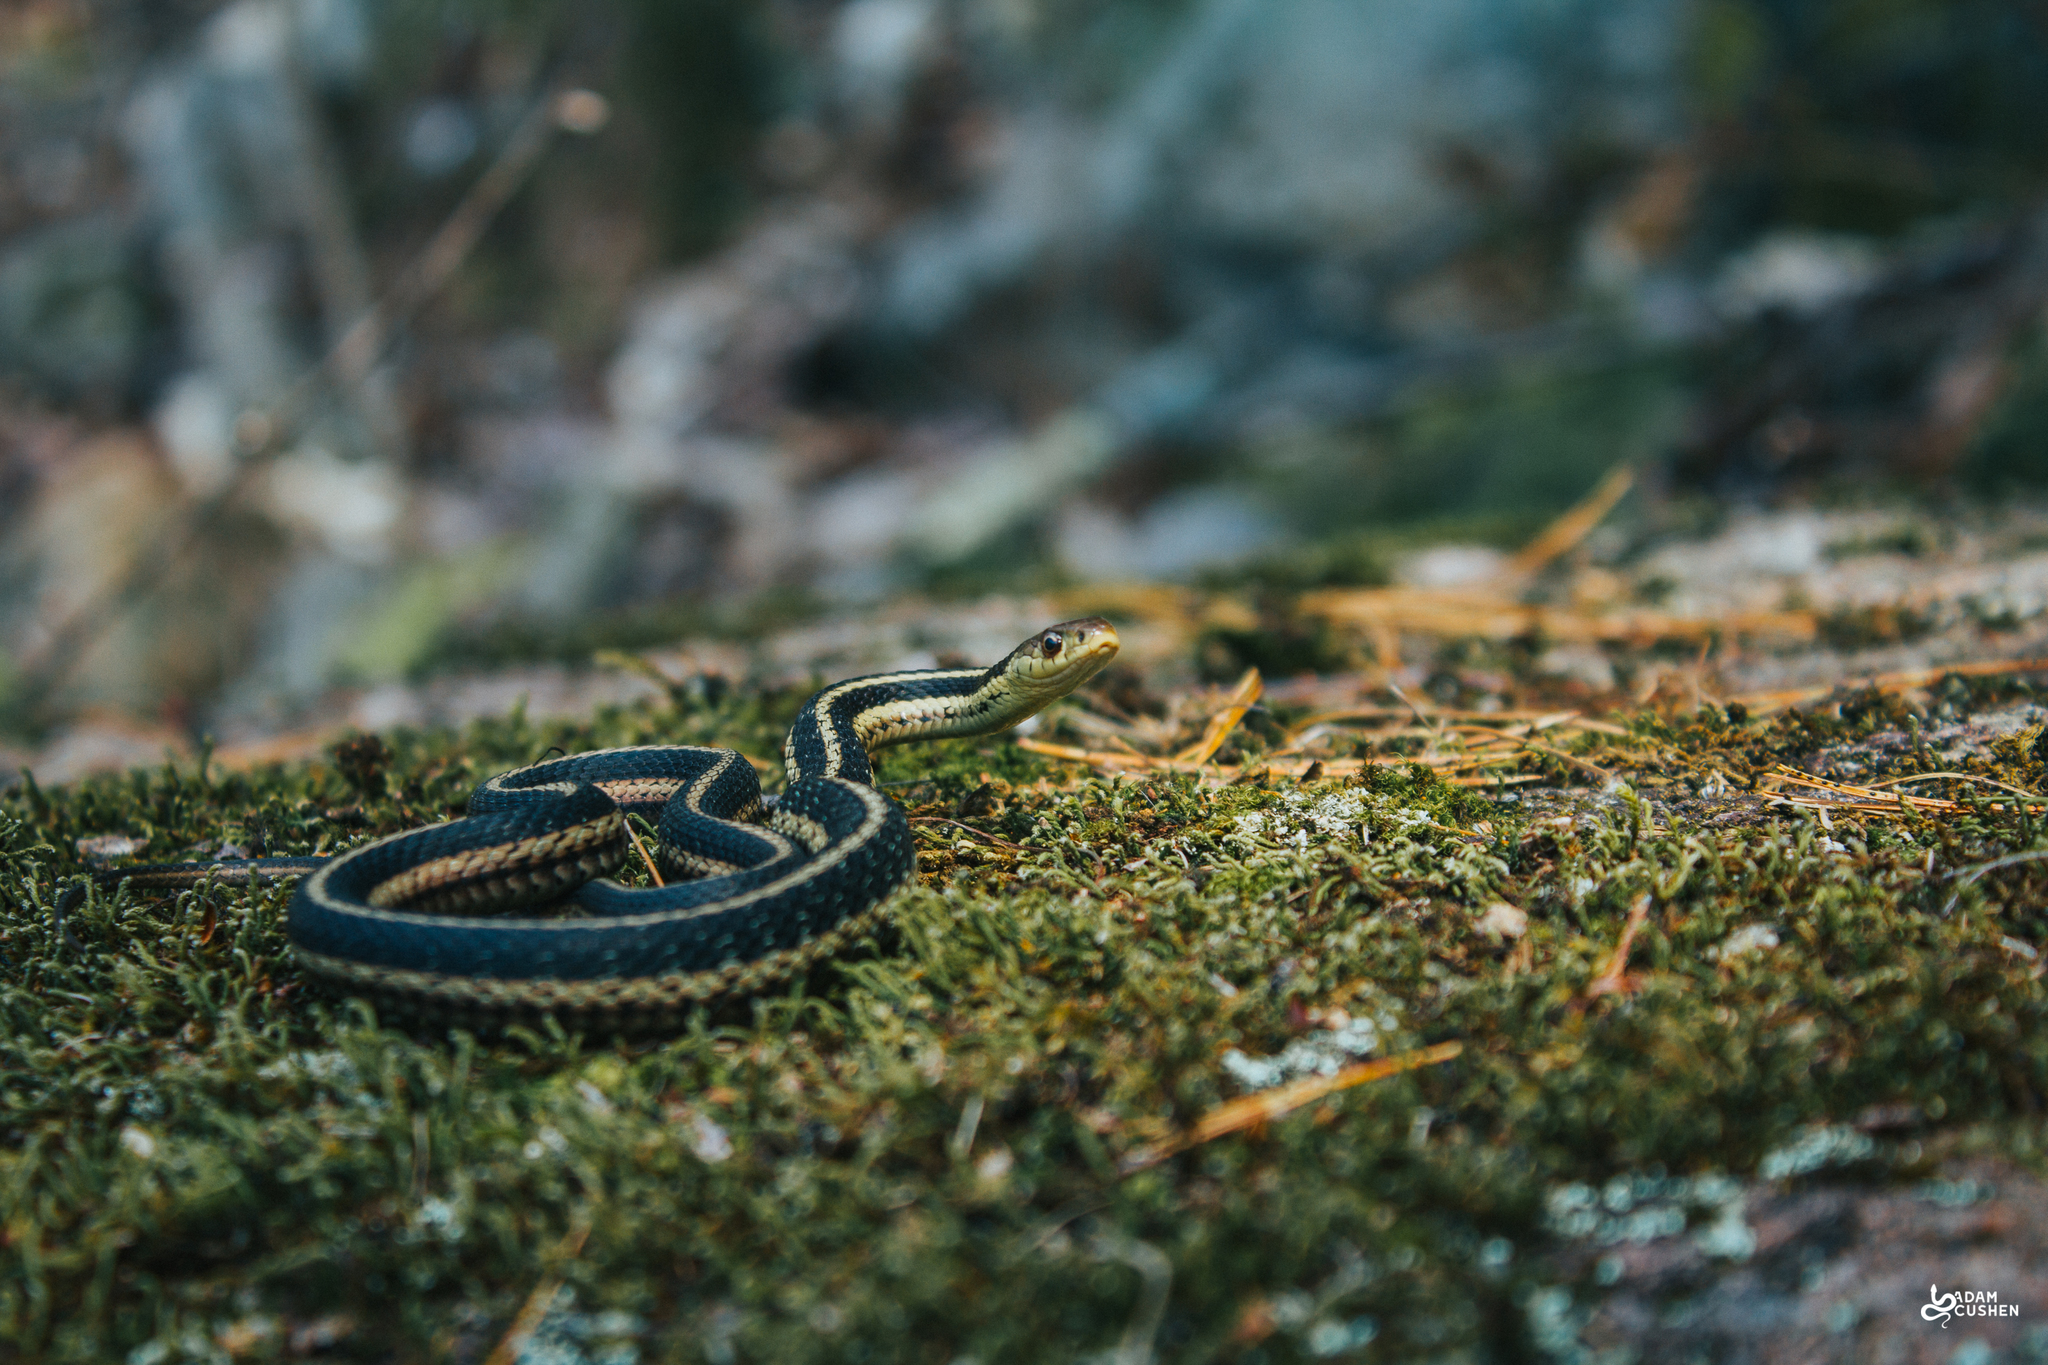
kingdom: Animalia
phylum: Chordata
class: Squamata
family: Colubridae
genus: Thamnophis
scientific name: Thamnophis sirtalis
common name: Common garter snake
